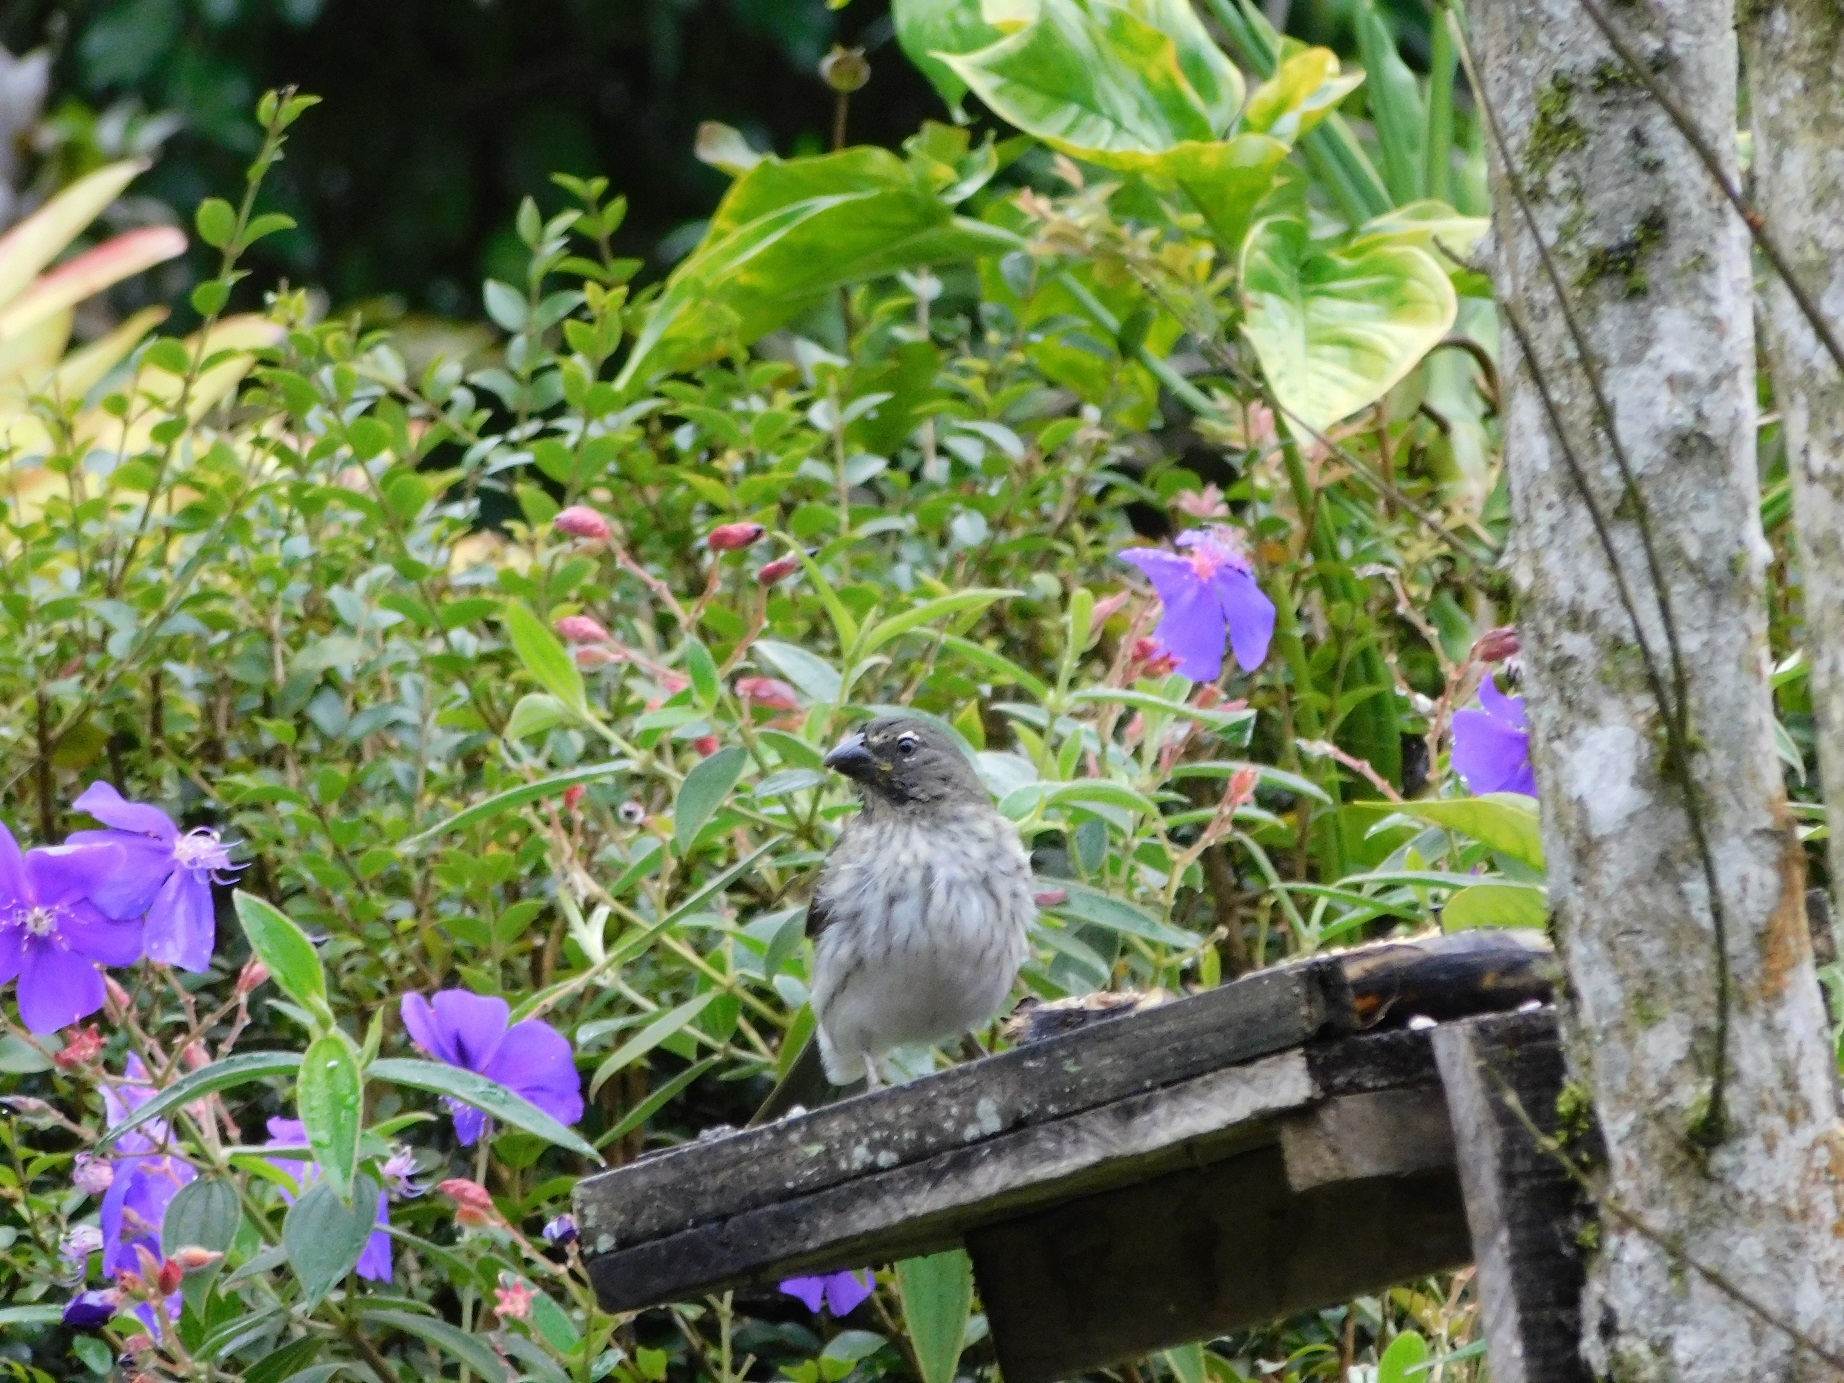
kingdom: Animalia
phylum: Chordata
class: Aves
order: Passeriformes
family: Thraupidae
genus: Saltator
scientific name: Saltator striatipectus
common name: Streaked saltator
